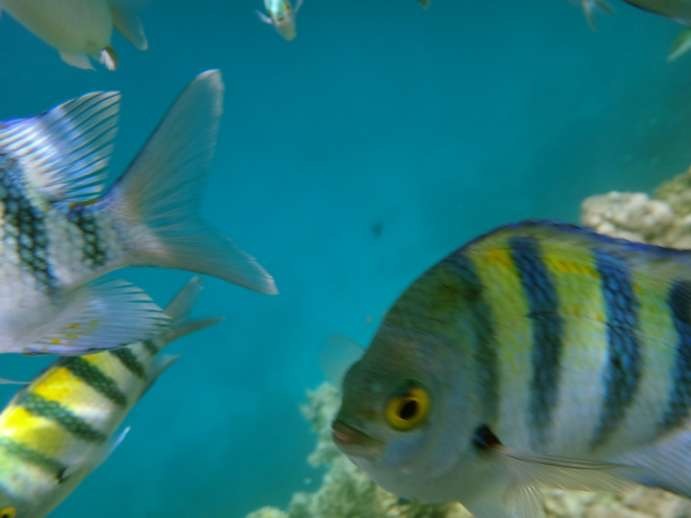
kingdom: Animalia
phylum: Chordata
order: Perciformes
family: Pomacentridae
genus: Abudefduf
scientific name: Abudefduf vaigiensis
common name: Indo-pacific sergeant
